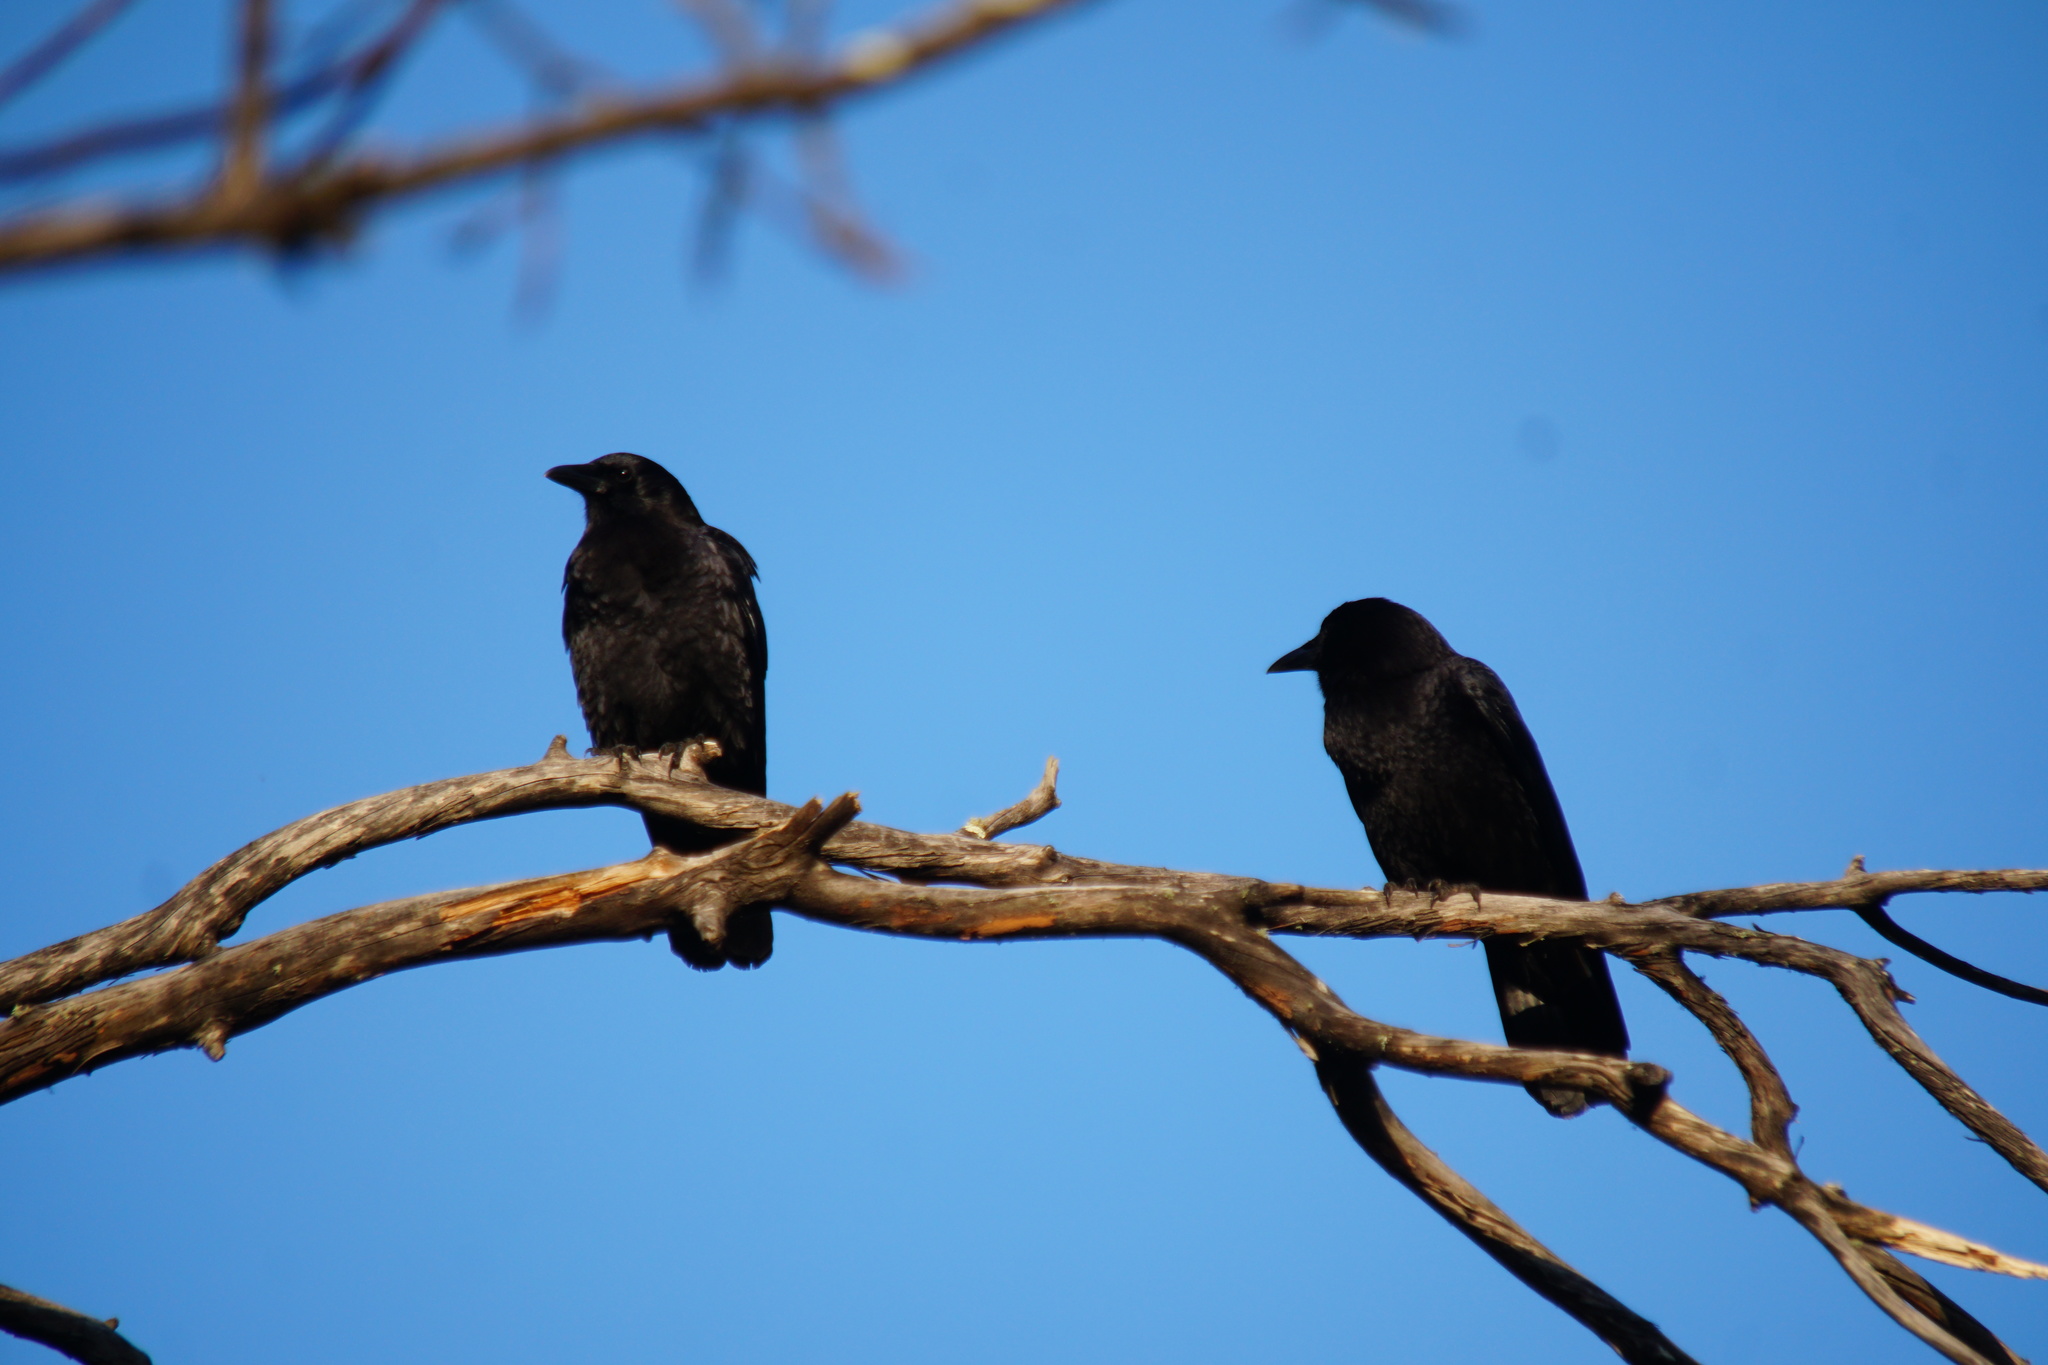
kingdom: Animalia
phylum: Chordata
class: Aves
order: Passeriformes
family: Corvidae
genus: Corvus
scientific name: Corvus brachyrhynchos
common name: American crow
